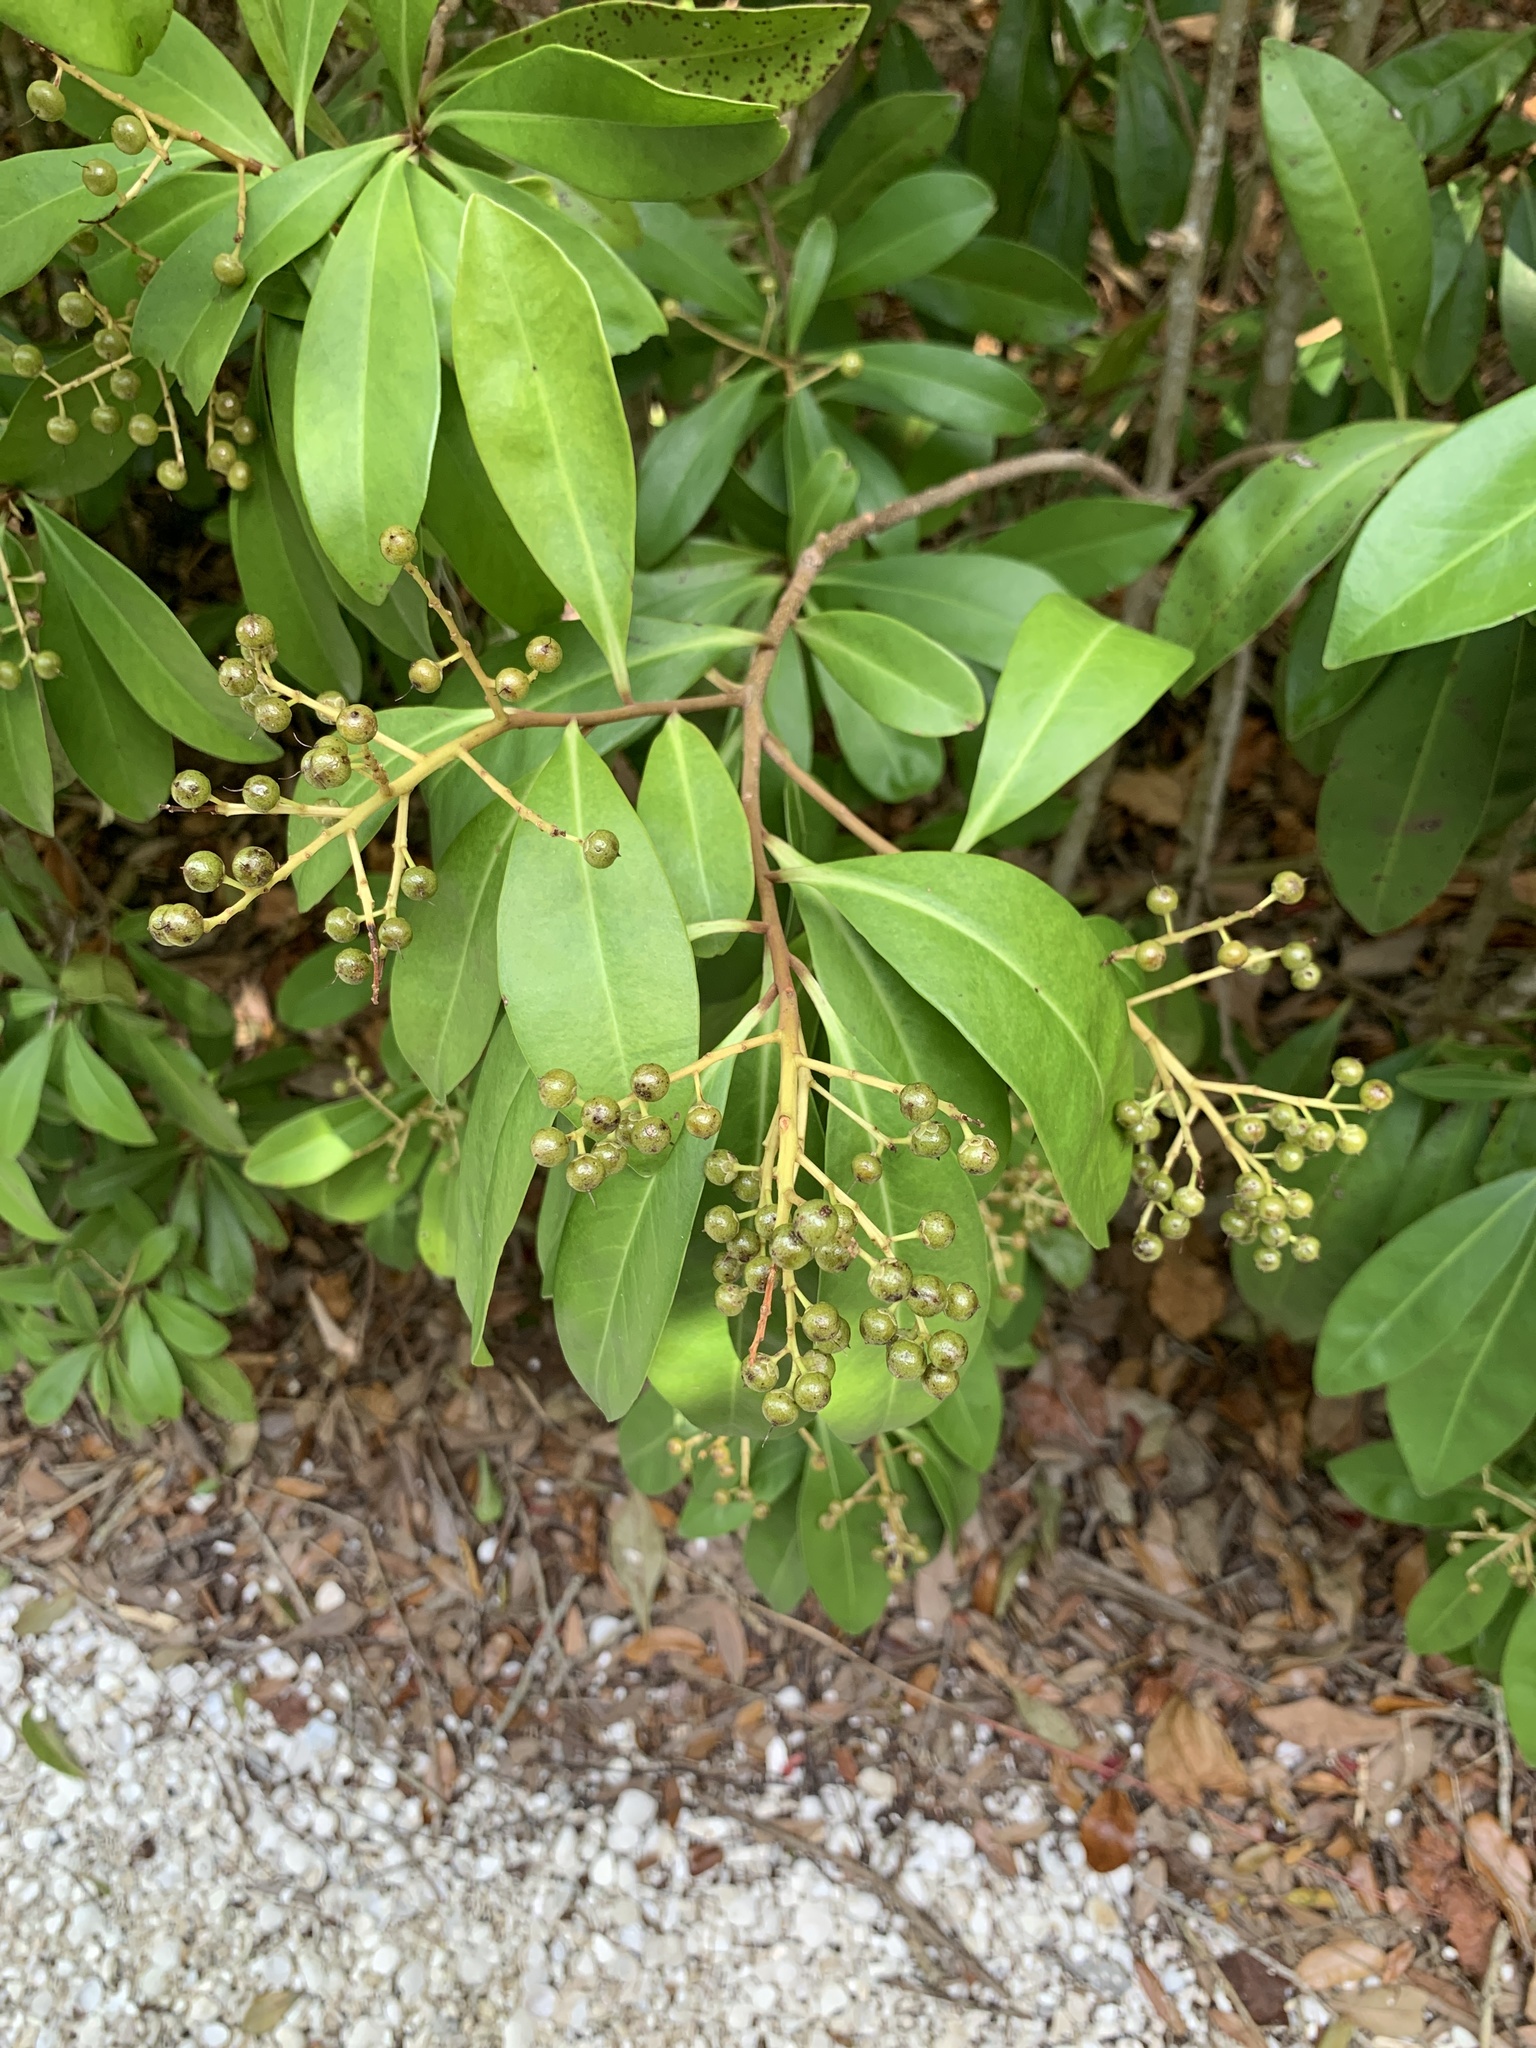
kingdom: Plantae
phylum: Tracheophyta
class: Magnoliopsida
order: Ericales
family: Primulaceae
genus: Ardisia
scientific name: Ardisia escallonioides
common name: Island marlberry
